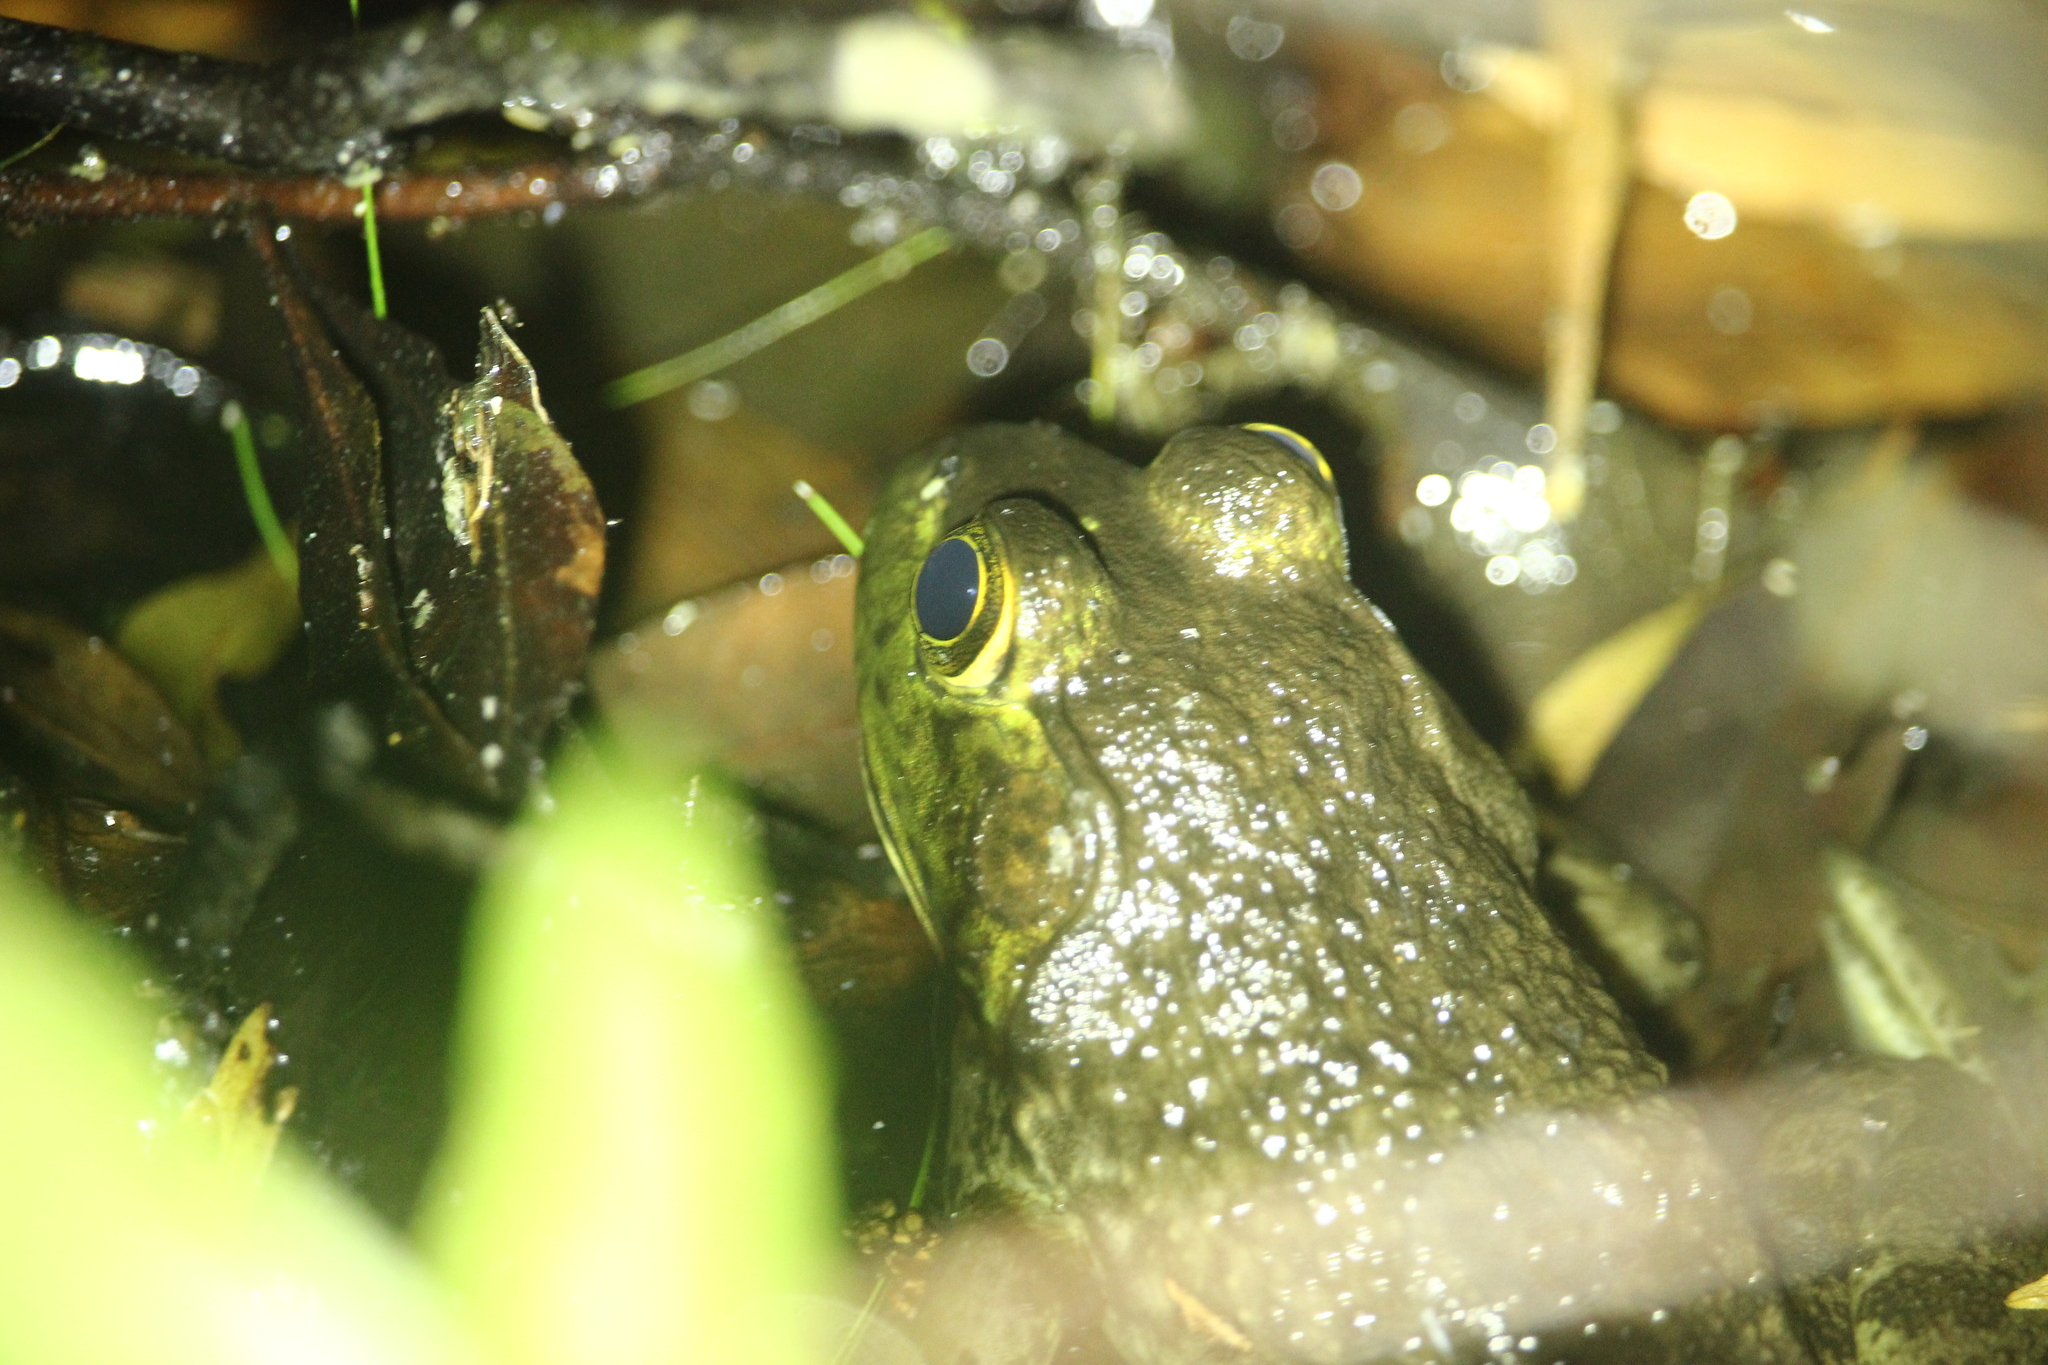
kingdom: Animalia
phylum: Chordata
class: Amphibia
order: Anura
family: Ranidae
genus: Lithobates
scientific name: Lithobates catesbeianus
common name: American bullfrog
